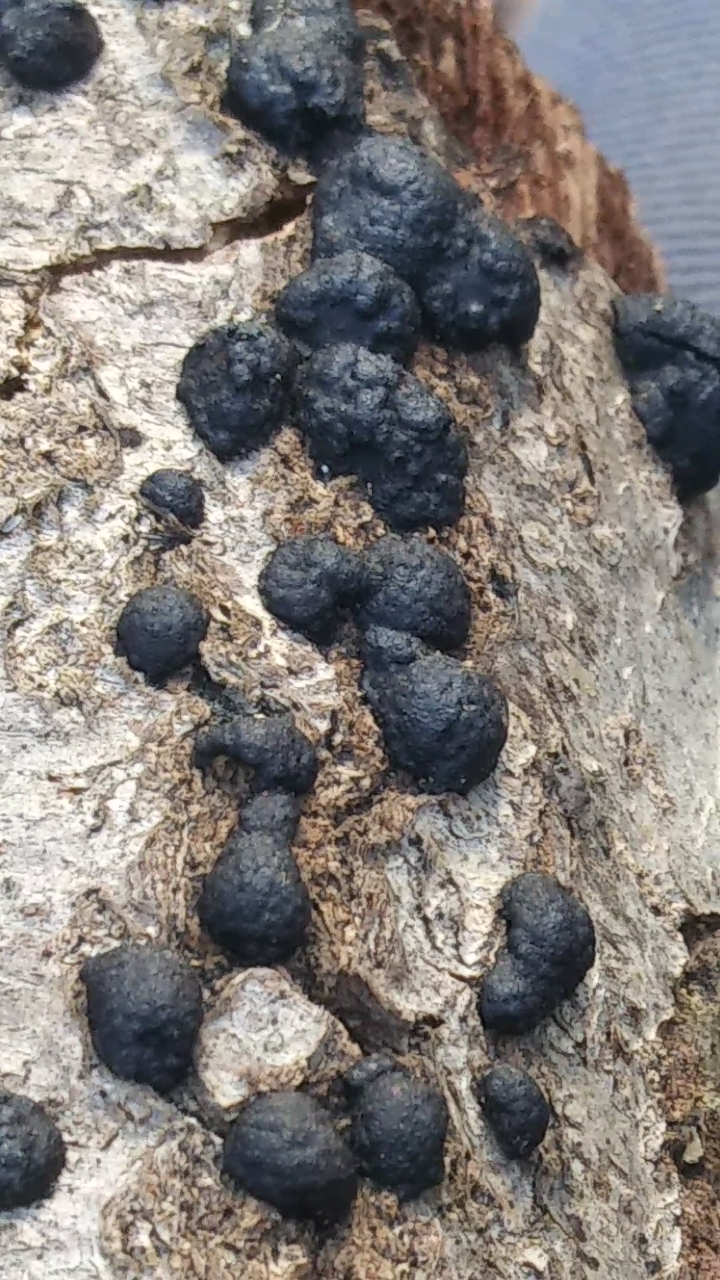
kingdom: Fungi
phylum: Ascomycota
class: Sordariomycetes
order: Xylariales
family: Hypoxylaceae
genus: Jackrogersella
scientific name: Jackrogersella multiformis
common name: Birch woodwart
